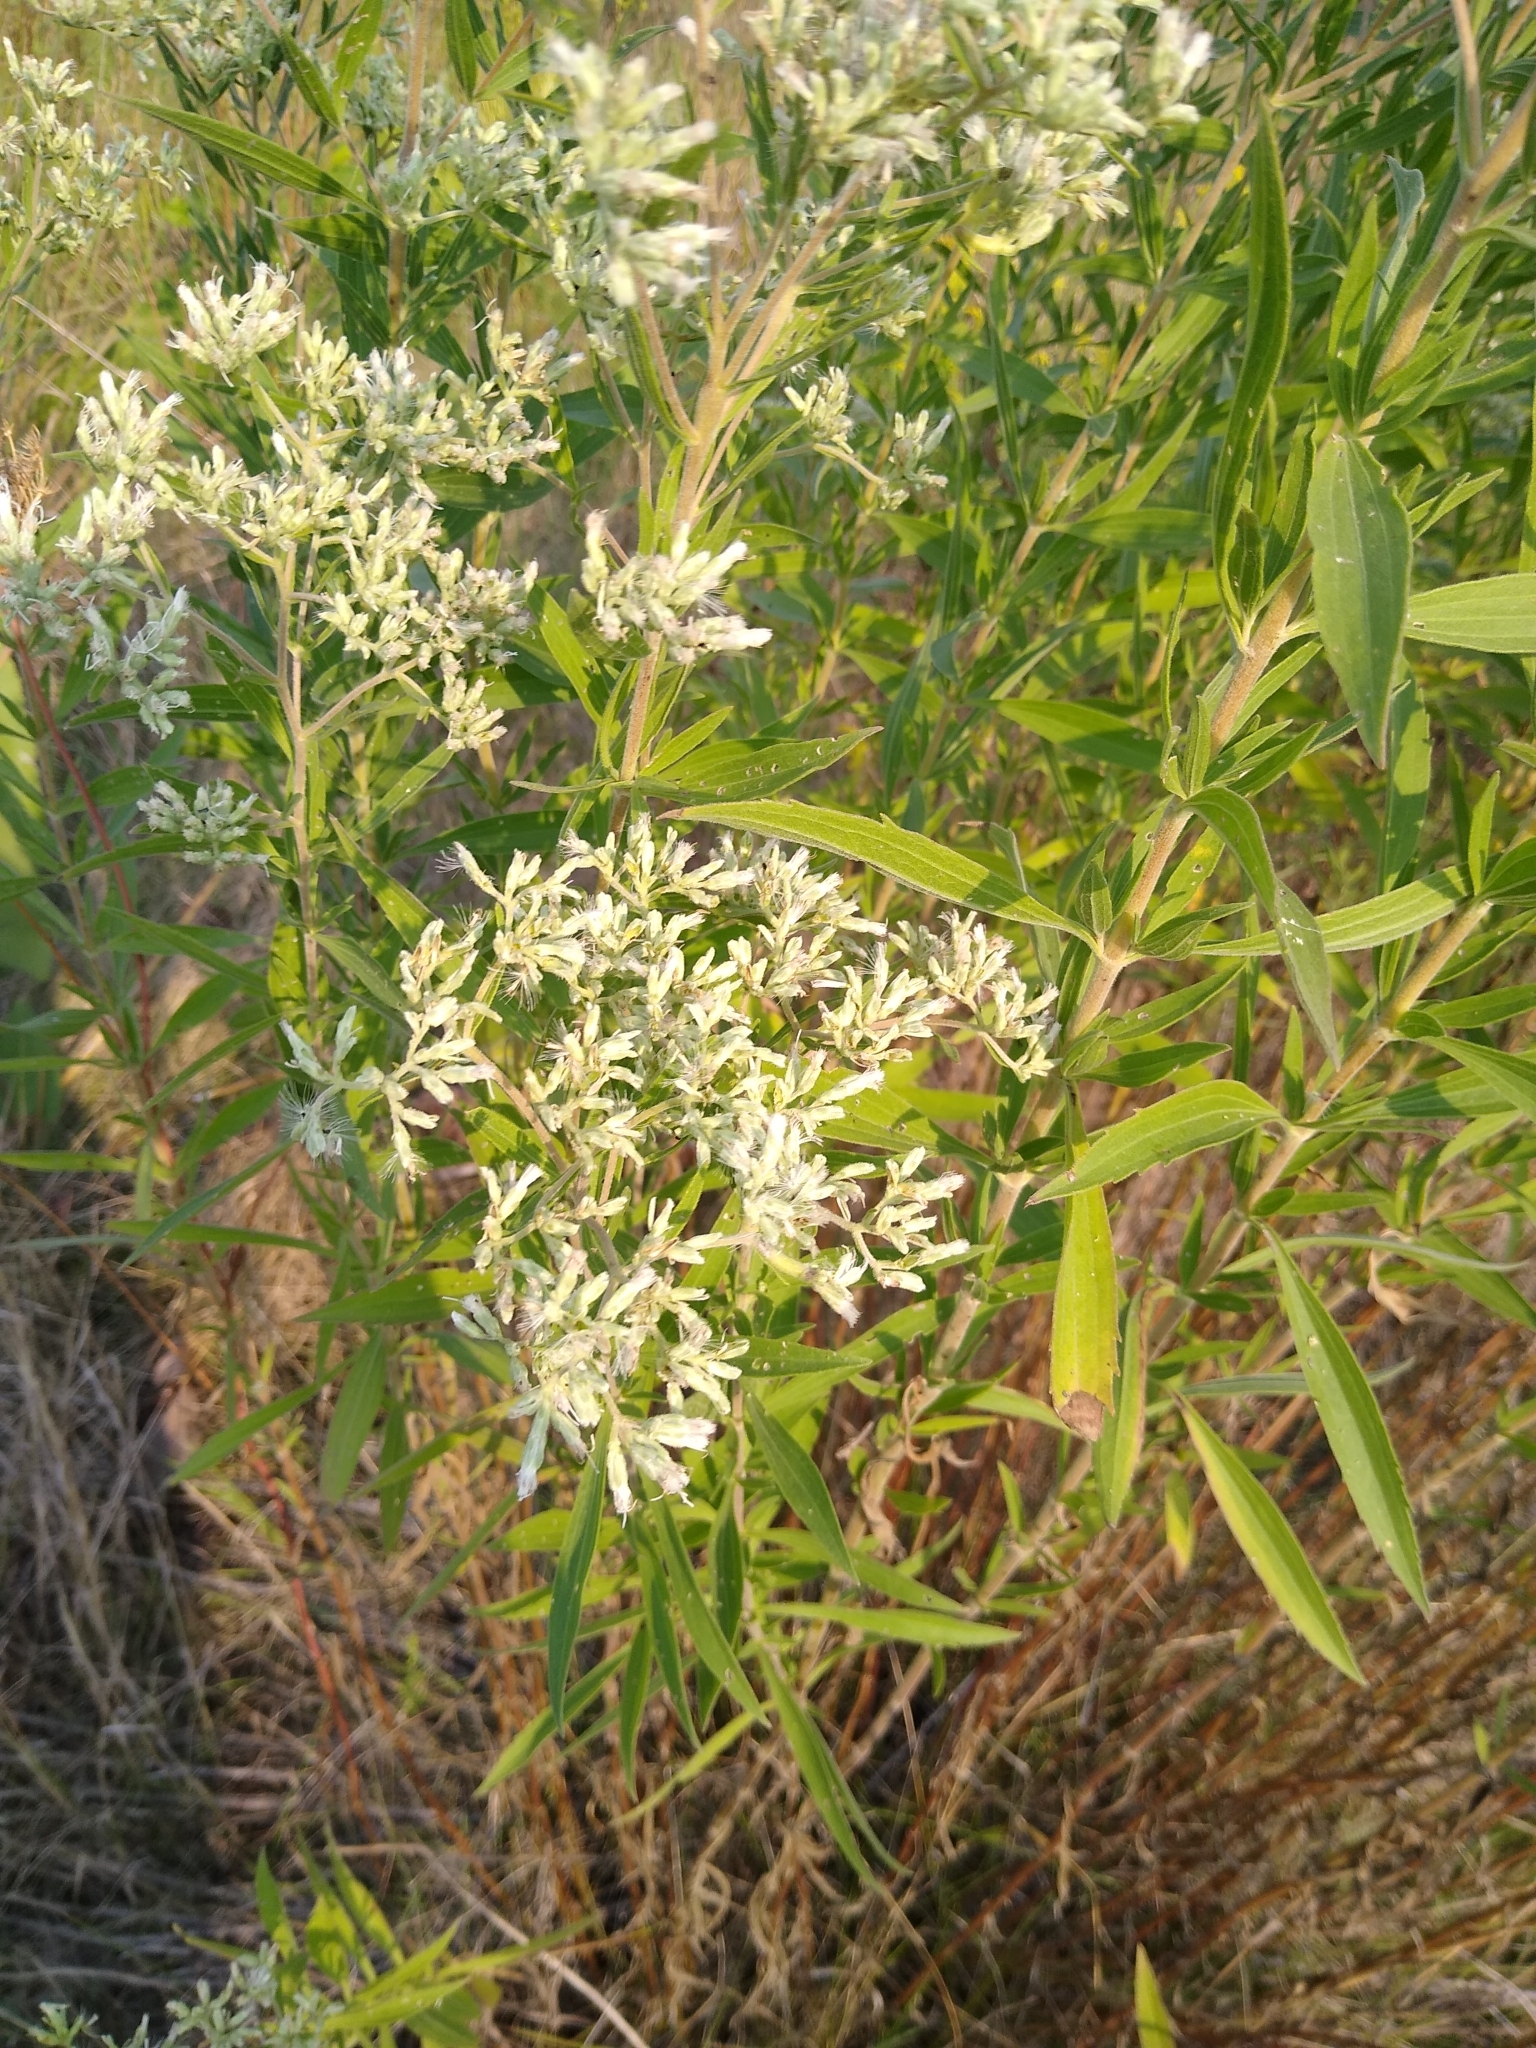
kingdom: Plantae
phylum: Tracheophyta
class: Magnoliopsida
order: Asterales
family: Asteraceae
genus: Eupatorium
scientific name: Eupatorium altissimum
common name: Tall thoroughwort
